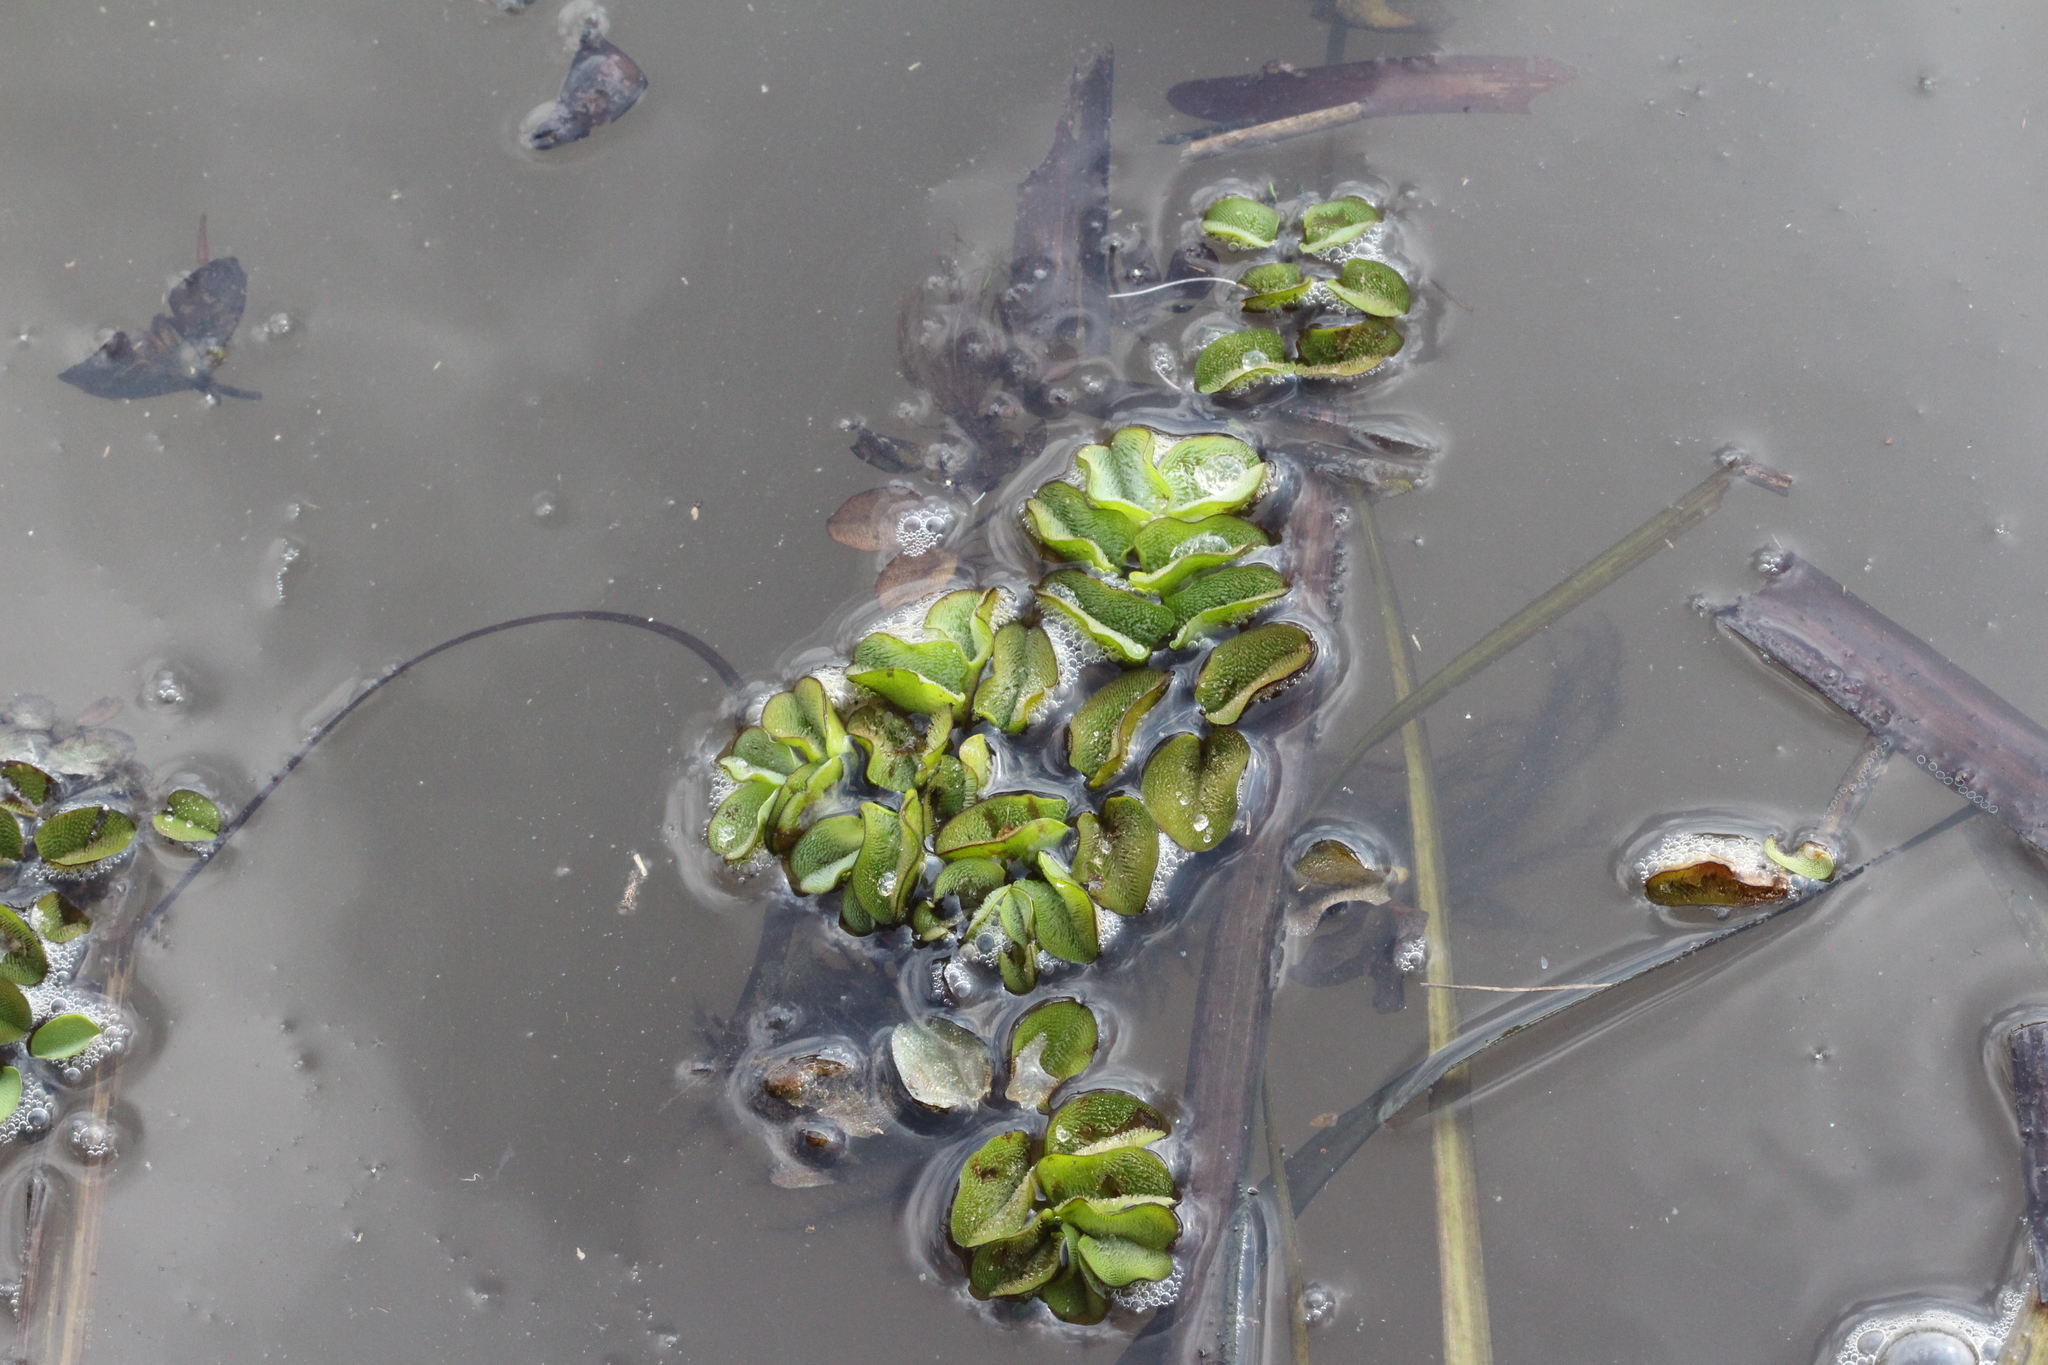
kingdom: Plantae
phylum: Tracheophyta
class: Polypodiopsida
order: Salviniales
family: Salviniaceae
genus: Salvinia
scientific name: Salvinia molesta
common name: Kariba weed
